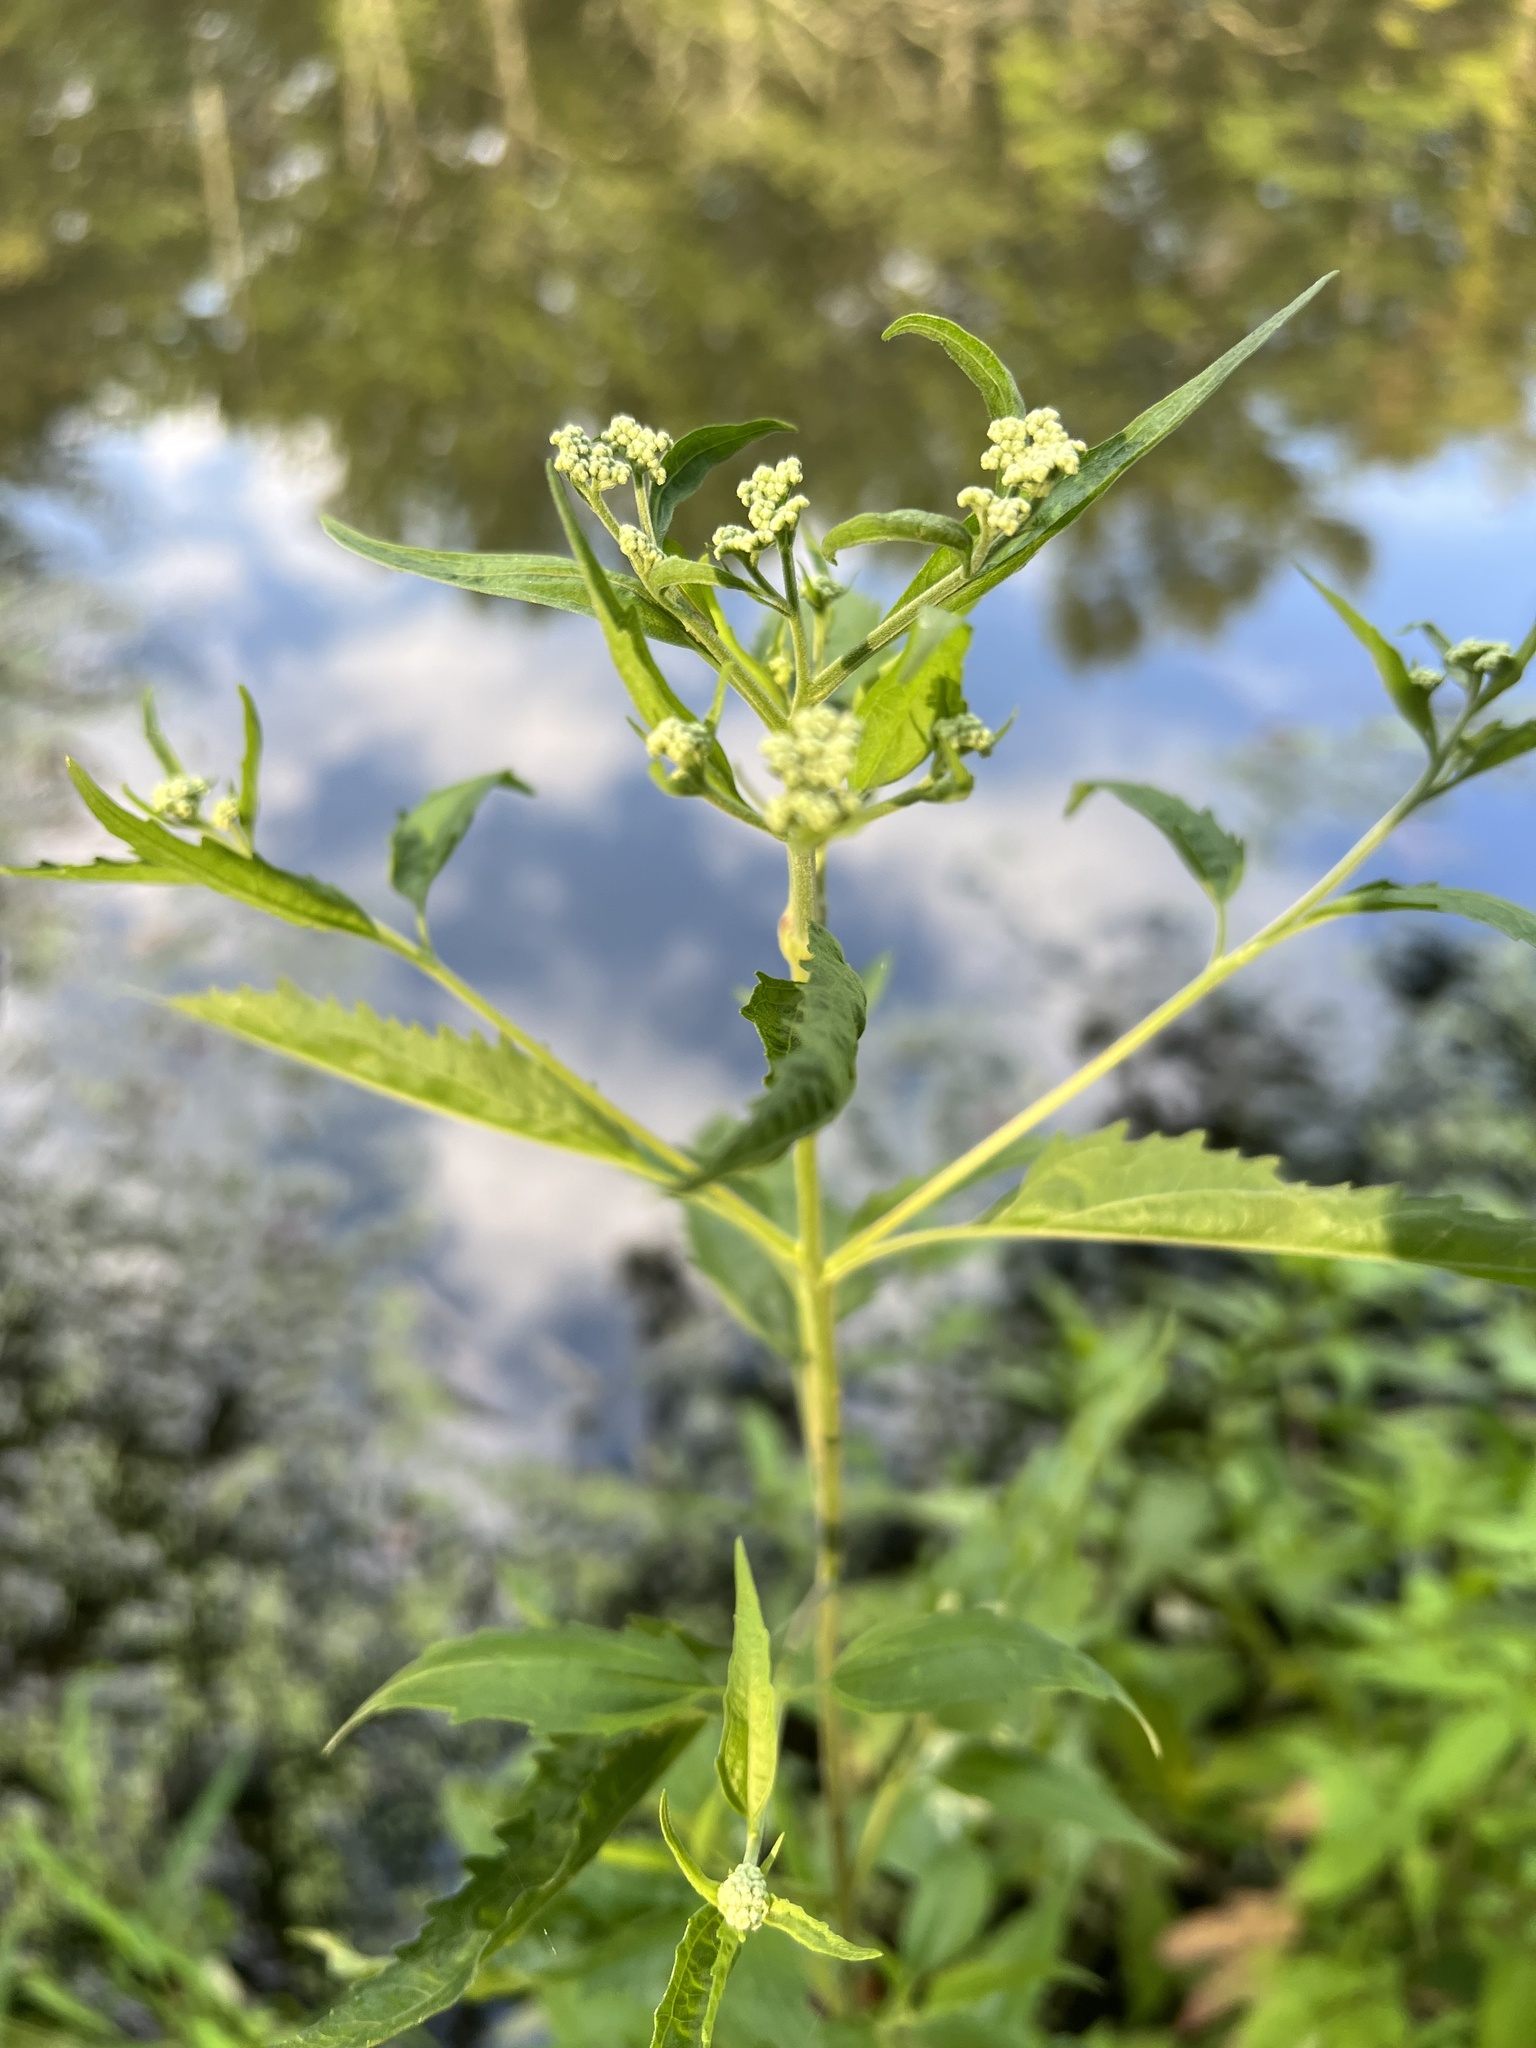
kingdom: Plantae
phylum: Tracheophyta
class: Magnoliopsida
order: Asterales
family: Asteraceae
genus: Eupatorium
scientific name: Eupatorium serotinum
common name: Late boneset
